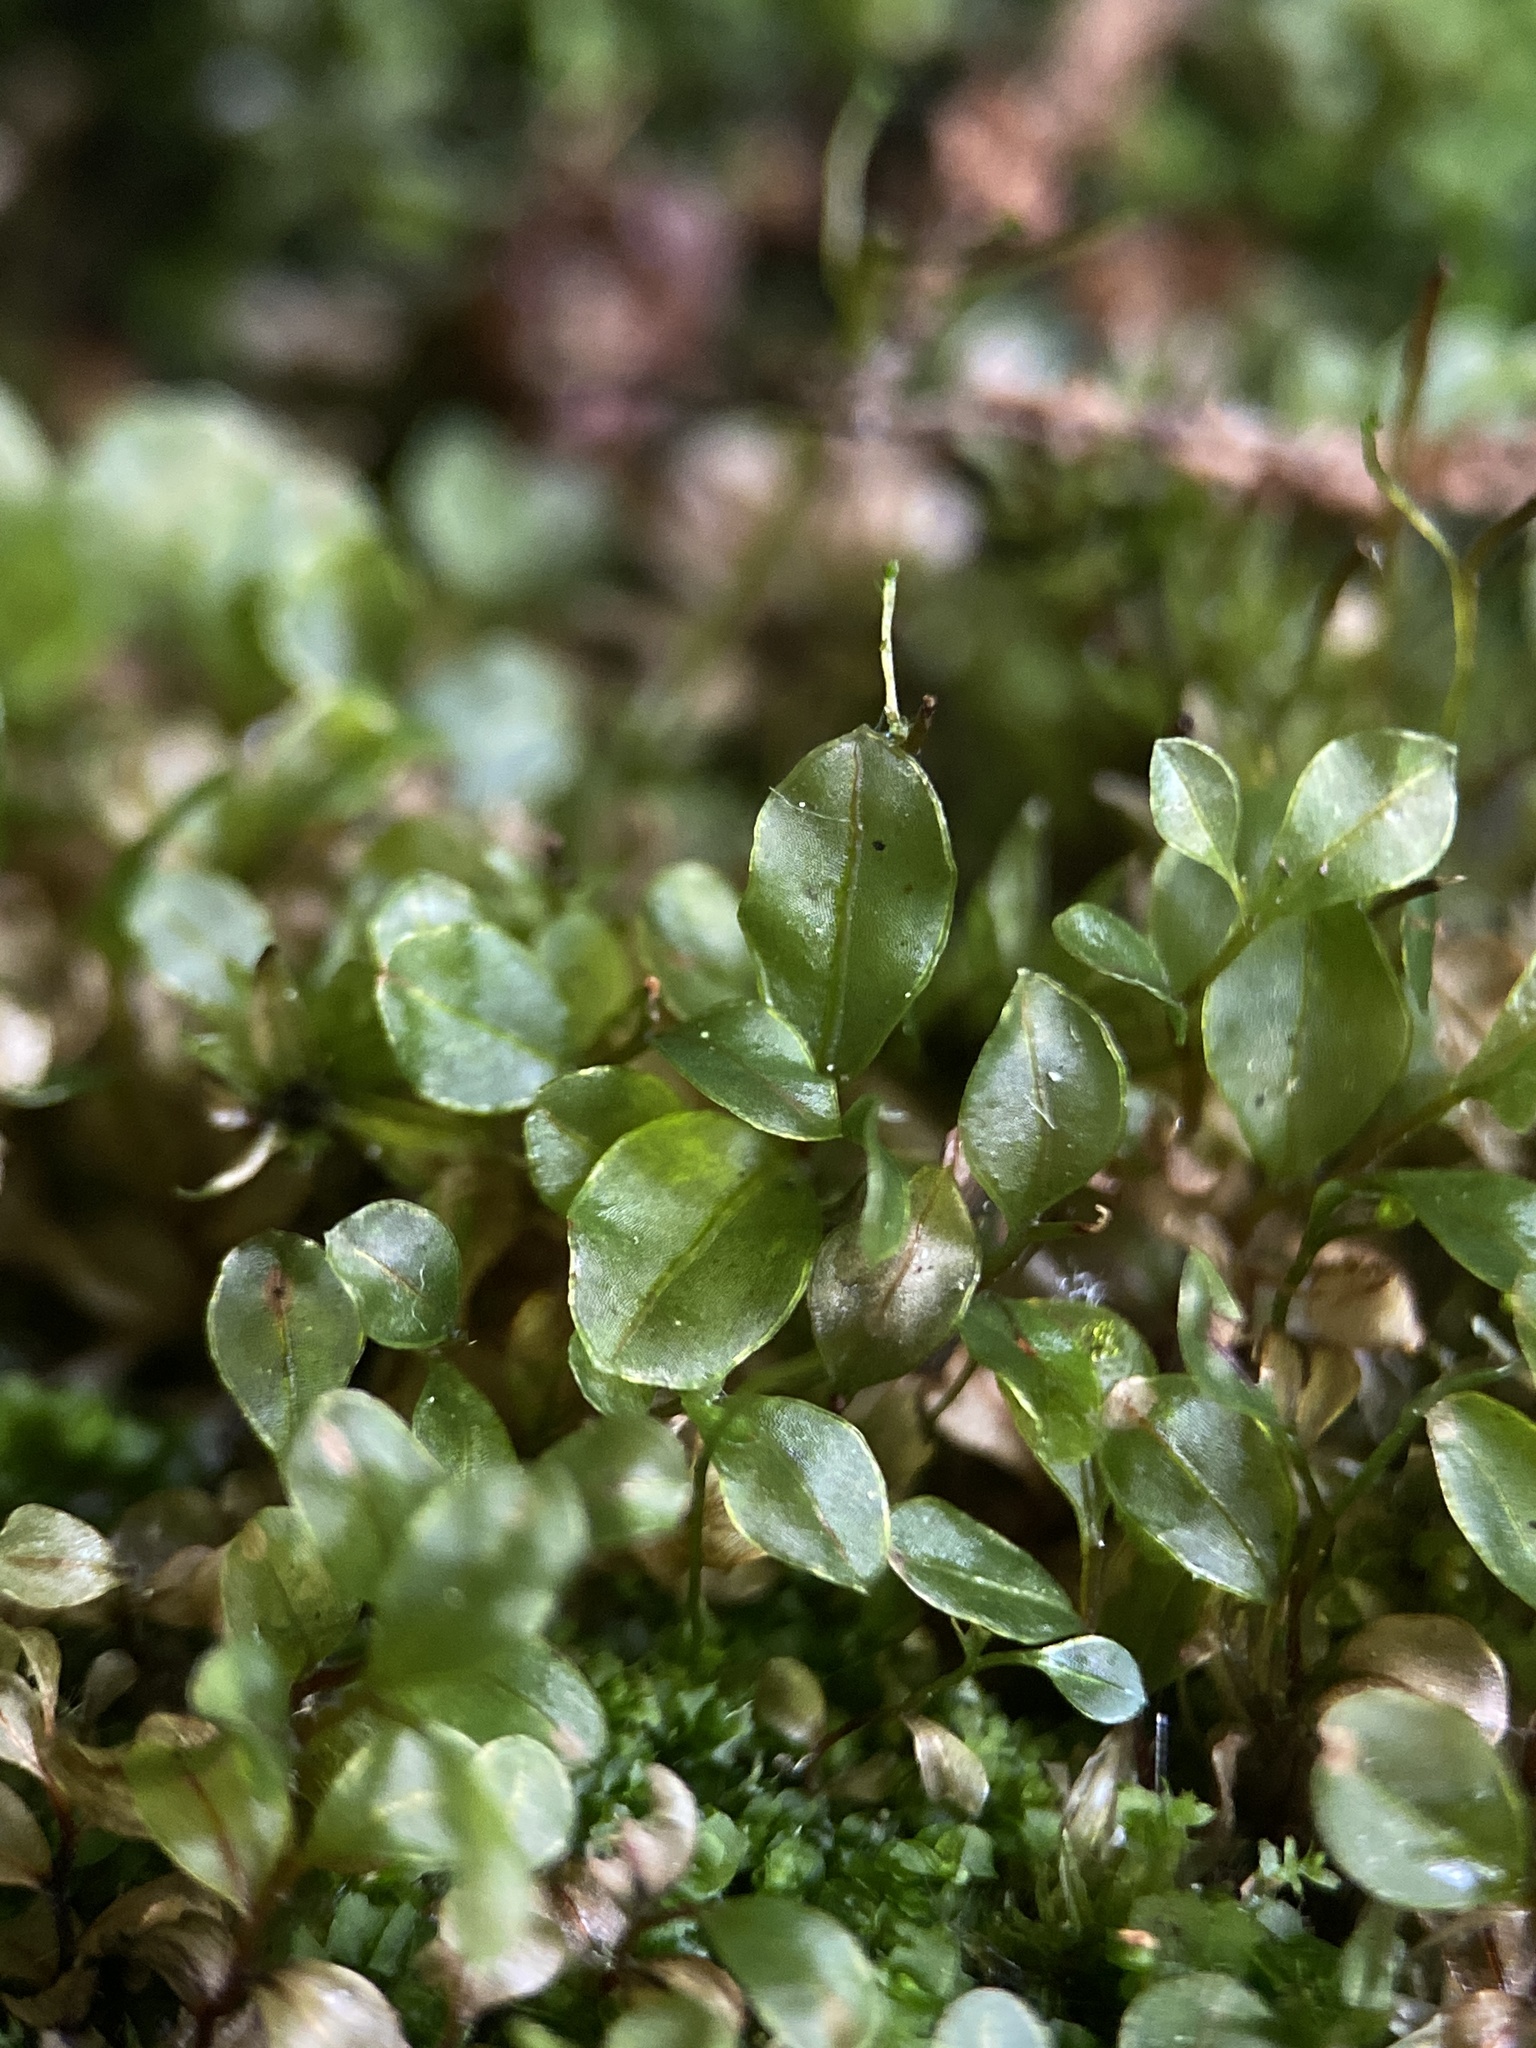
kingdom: Plantae
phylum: Bryophyta
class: Bryopsida
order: Bryales
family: Mniaceae
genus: Rhizomnium
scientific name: Rhizomnium punctatum
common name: Dotted leafy moss
